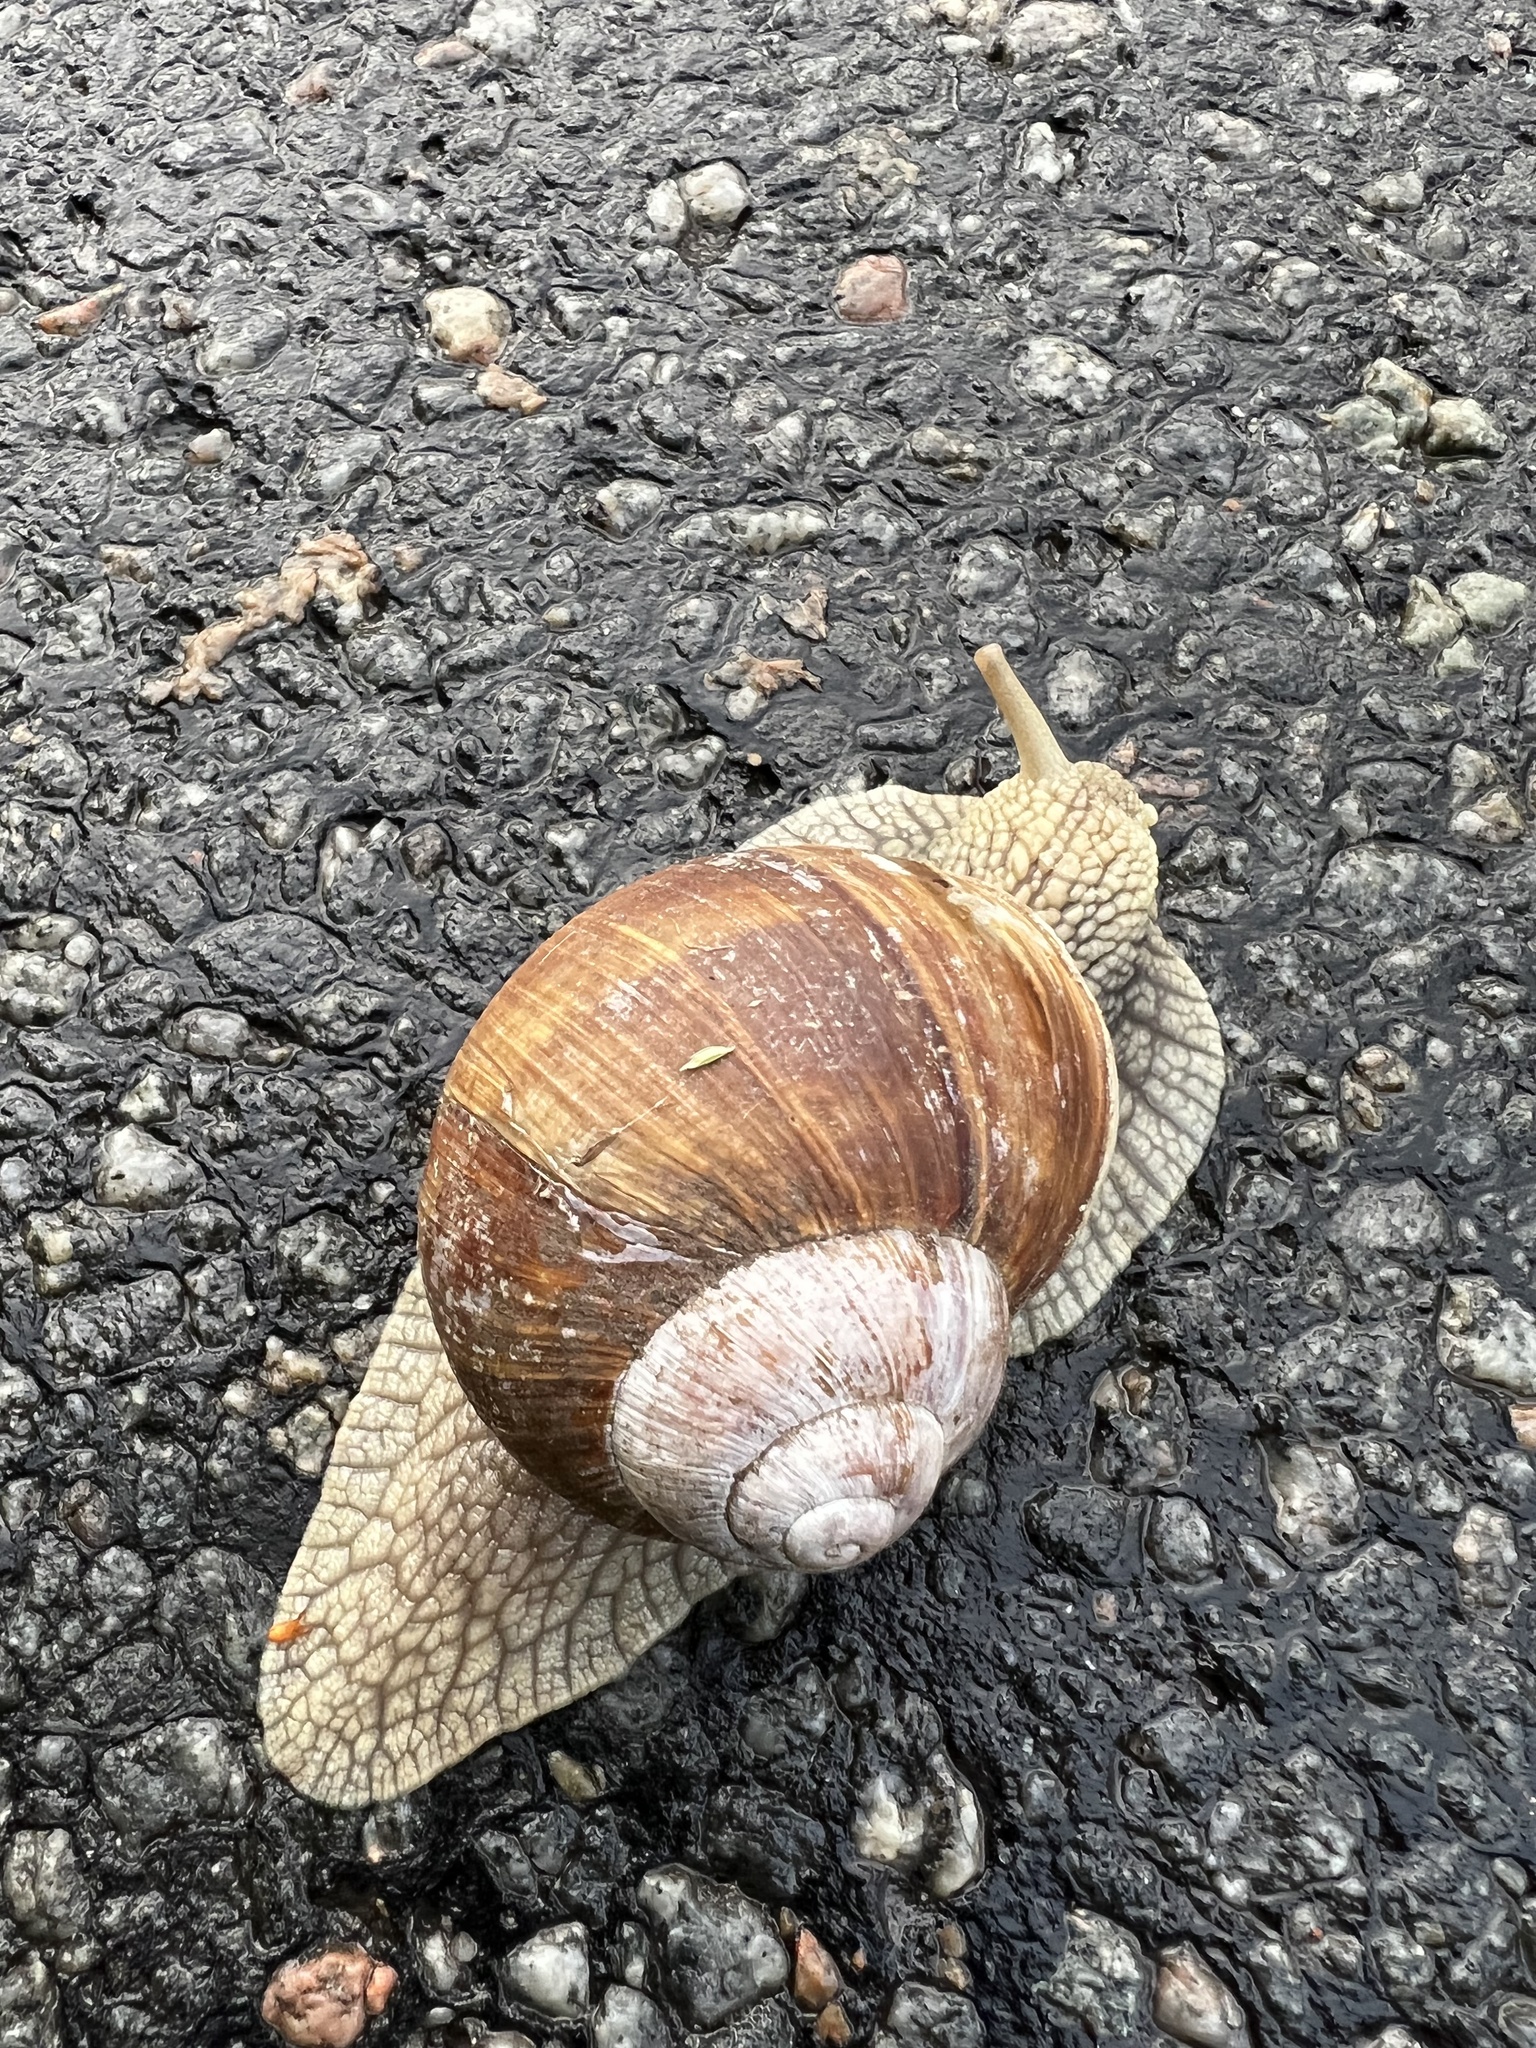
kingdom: Animalia
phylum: Mollusca
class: Gastropoda
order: Stylommatophora
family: Helicidae
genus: Helix
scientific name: Helix pomatia
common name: Roman snail
